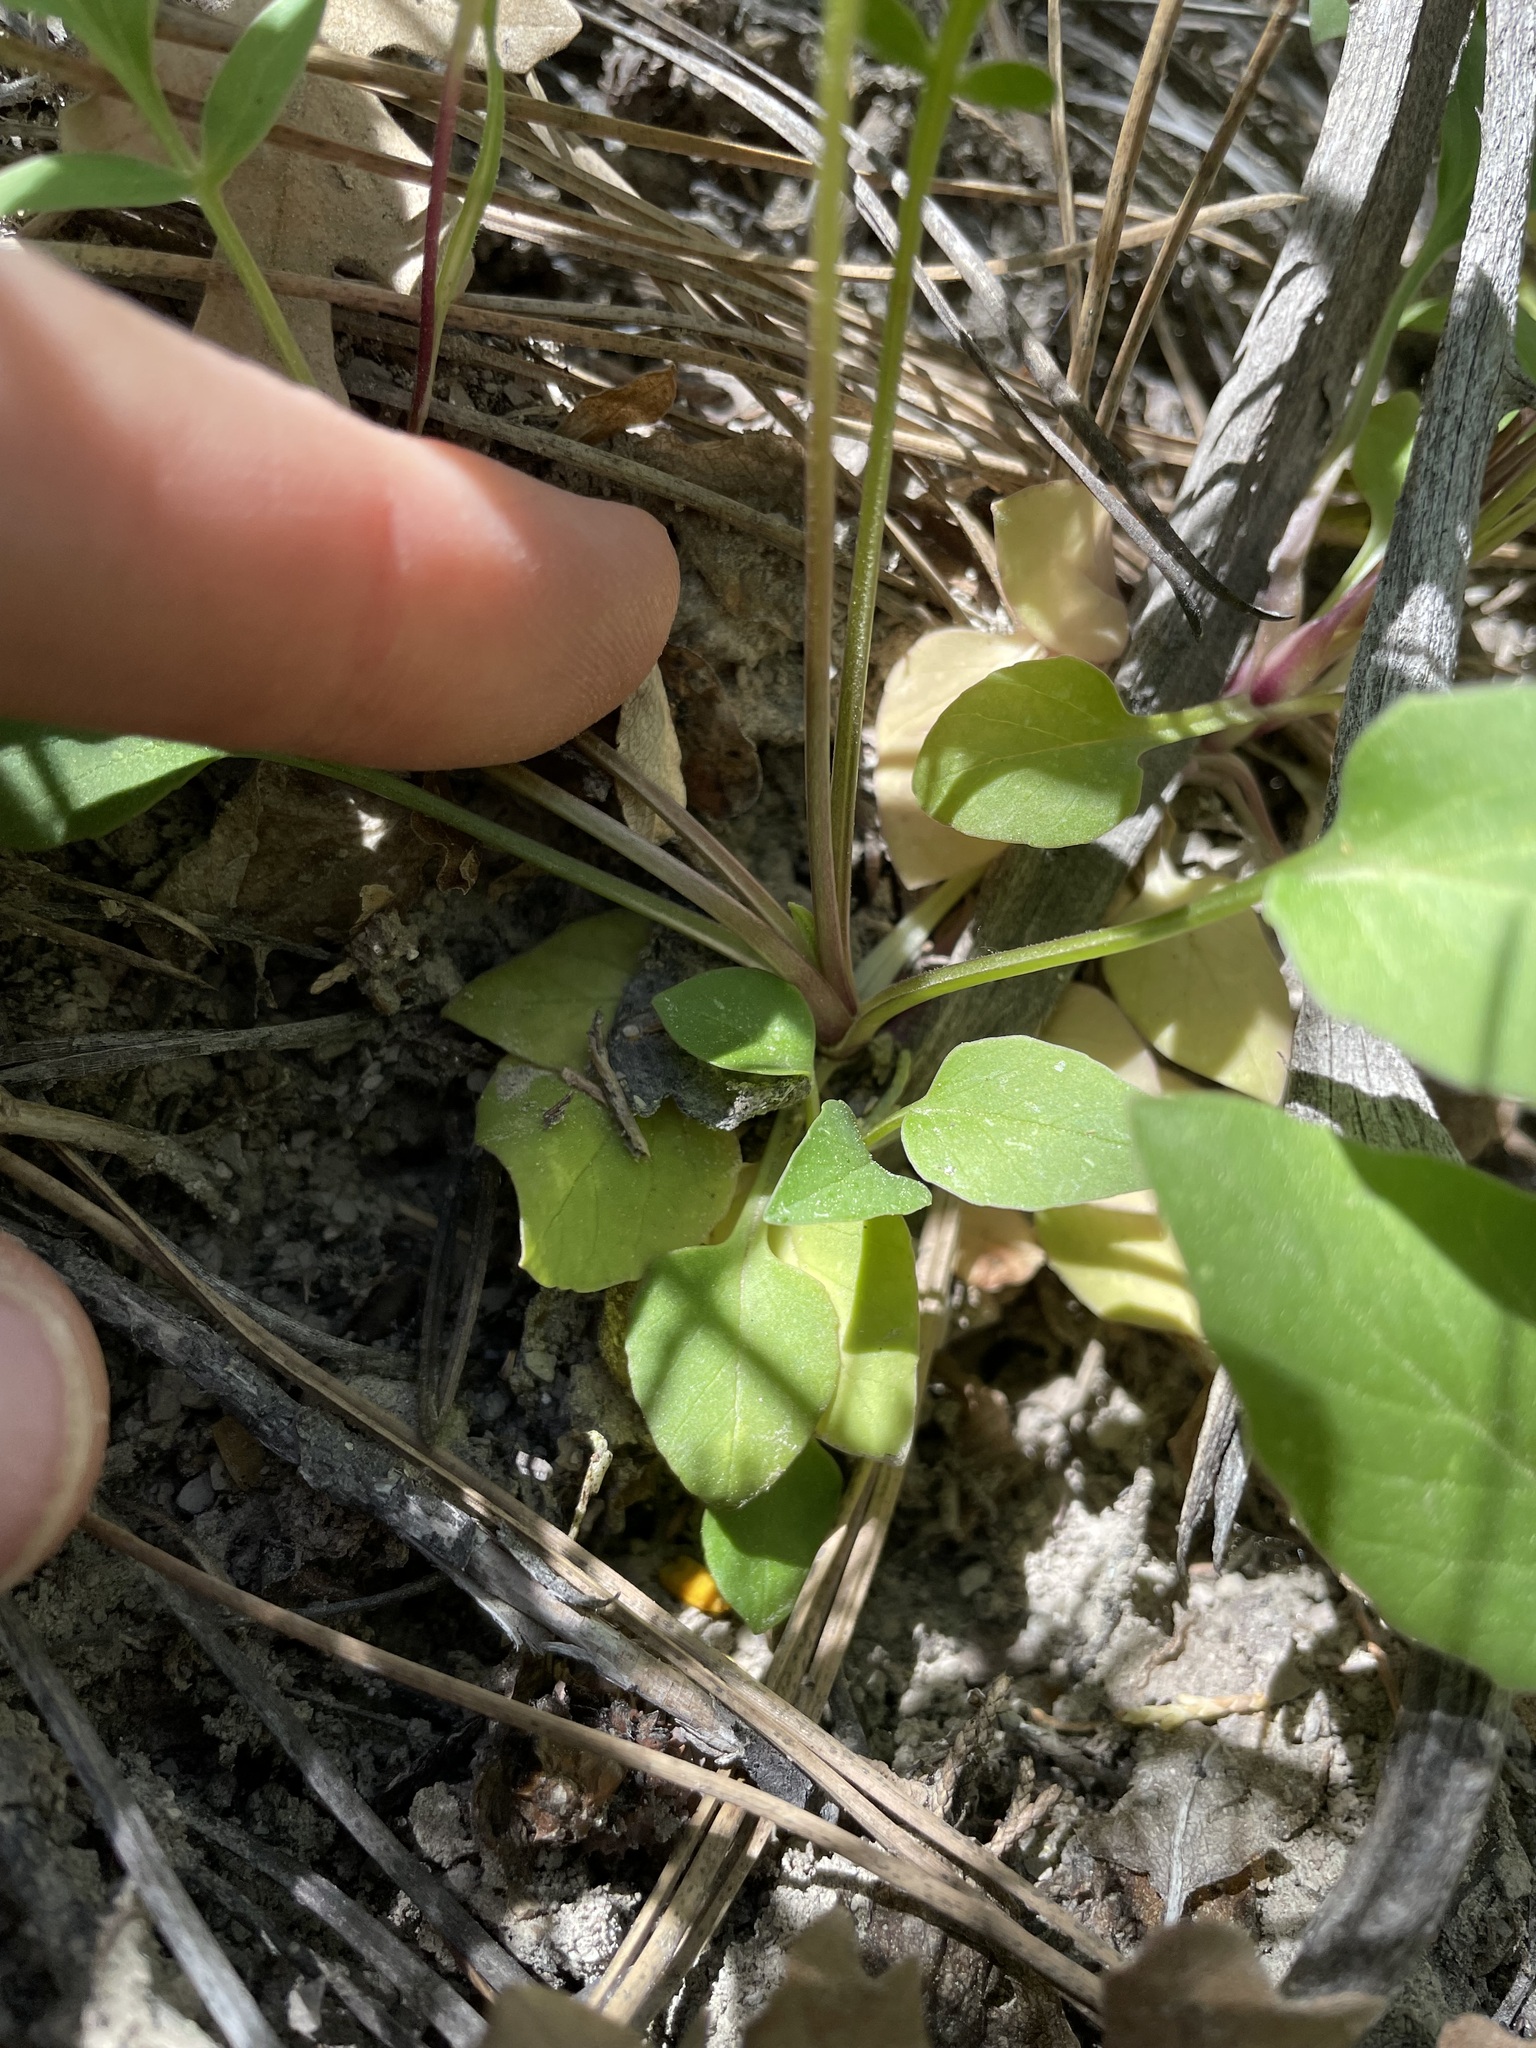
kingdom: Plantae
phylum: Tracheophyta
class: Magnoliopsida
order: Dipsacales
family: Caprifoliaceae
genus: Valeriana
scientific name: Valeriana arizonica
